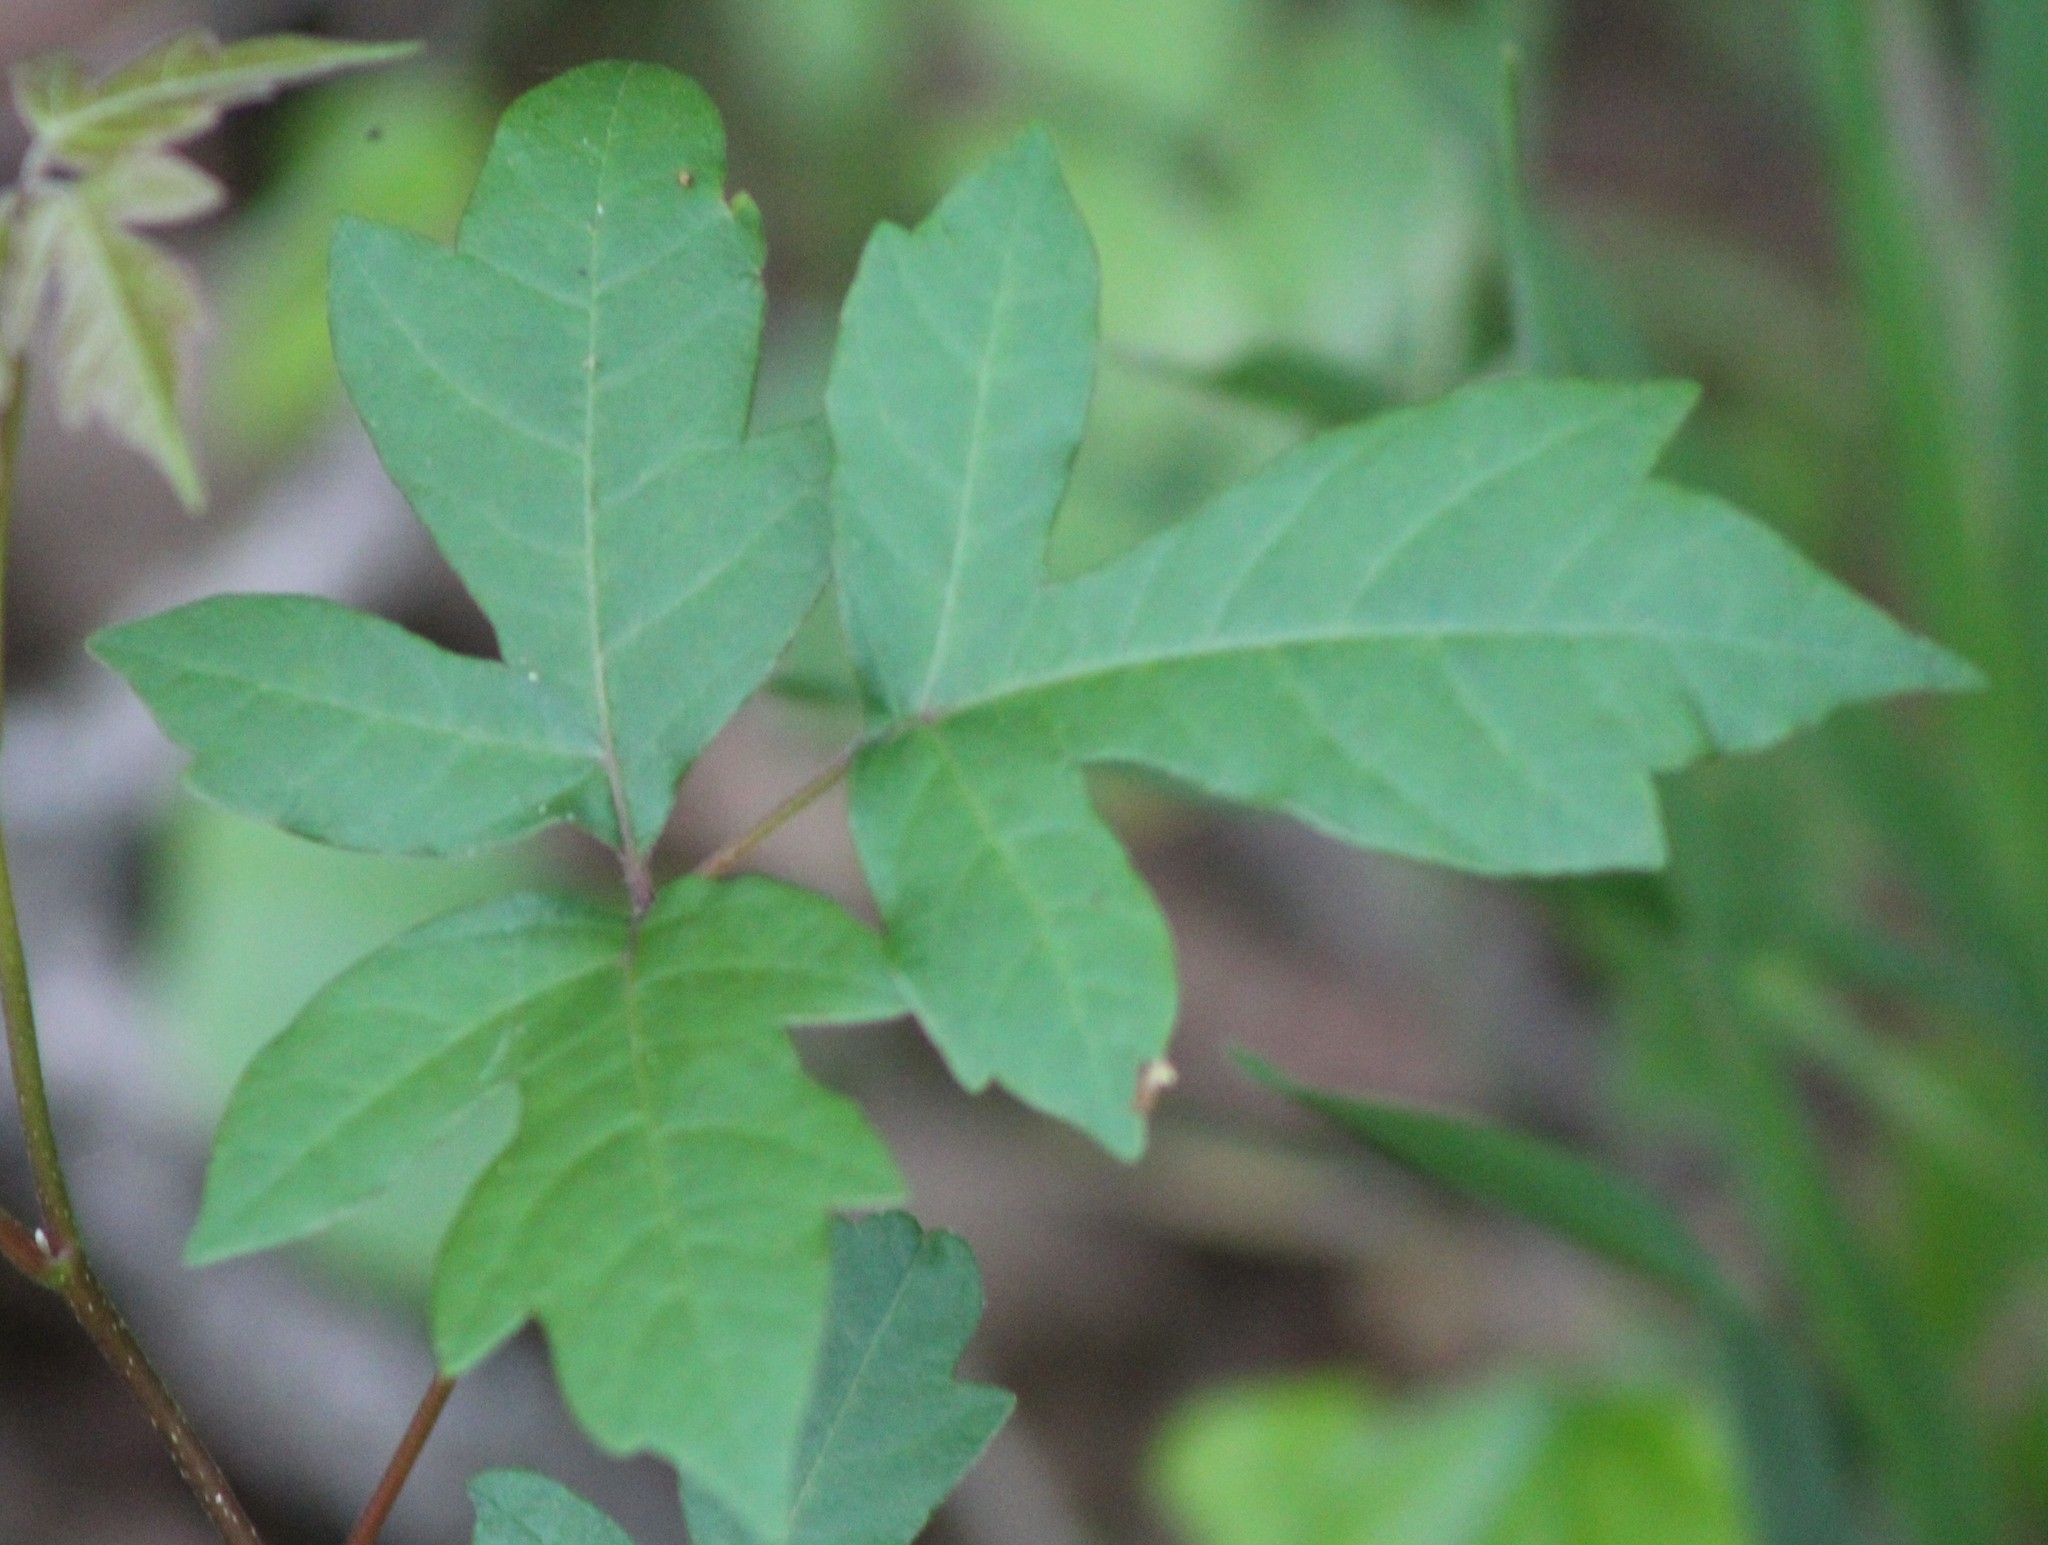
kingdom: Plantae
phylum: Tracheophyta
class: Magnoliopsida
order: Sapindales
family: Anacardiaceae
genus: Toxicodendron
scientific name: Toxicodendron radicans
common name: Poison ivy
